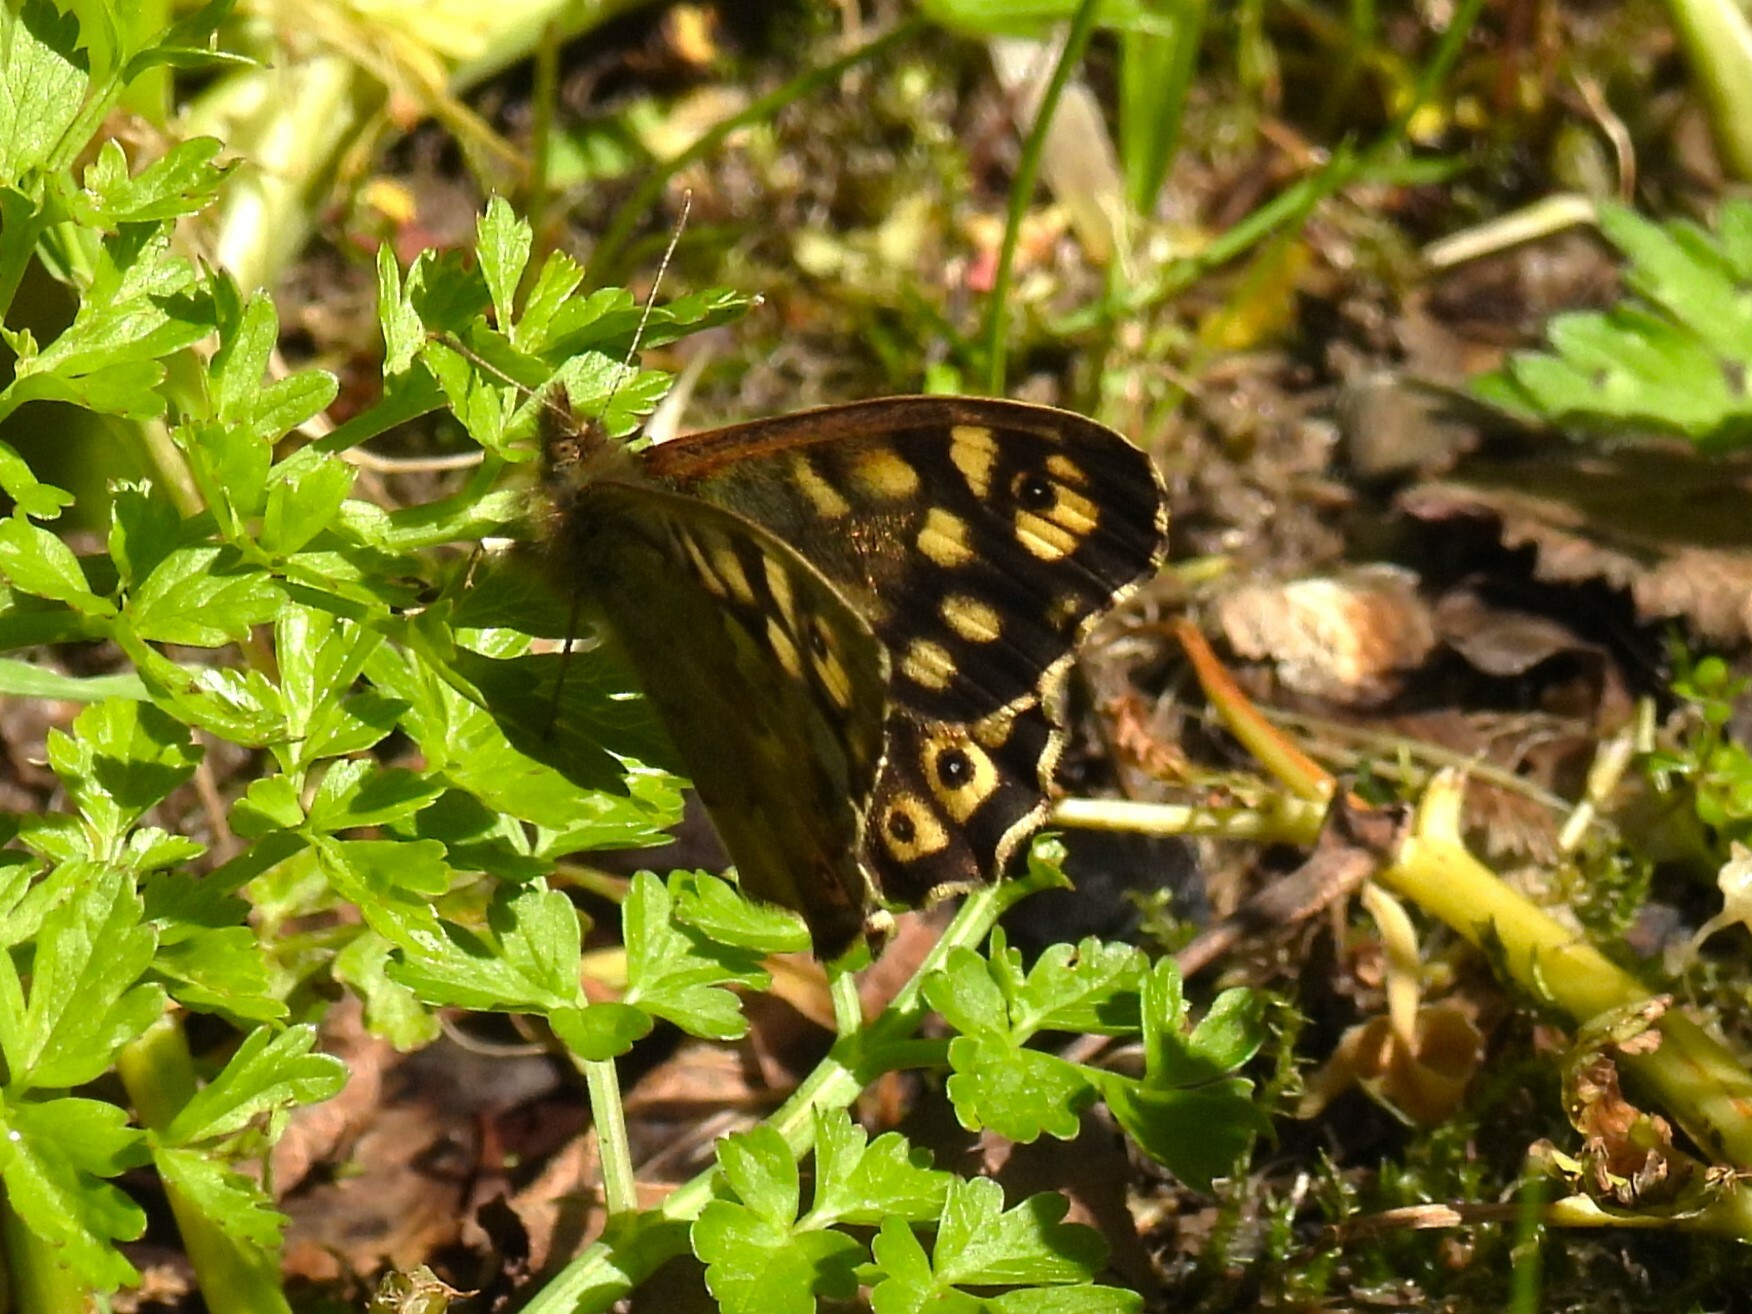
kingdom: Animalia
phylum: Arthropoda
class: Insecta
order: Lepidoptera
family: Nymphalidae
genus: Pararge
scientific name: Pararge aegeria
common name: Speckled wood
